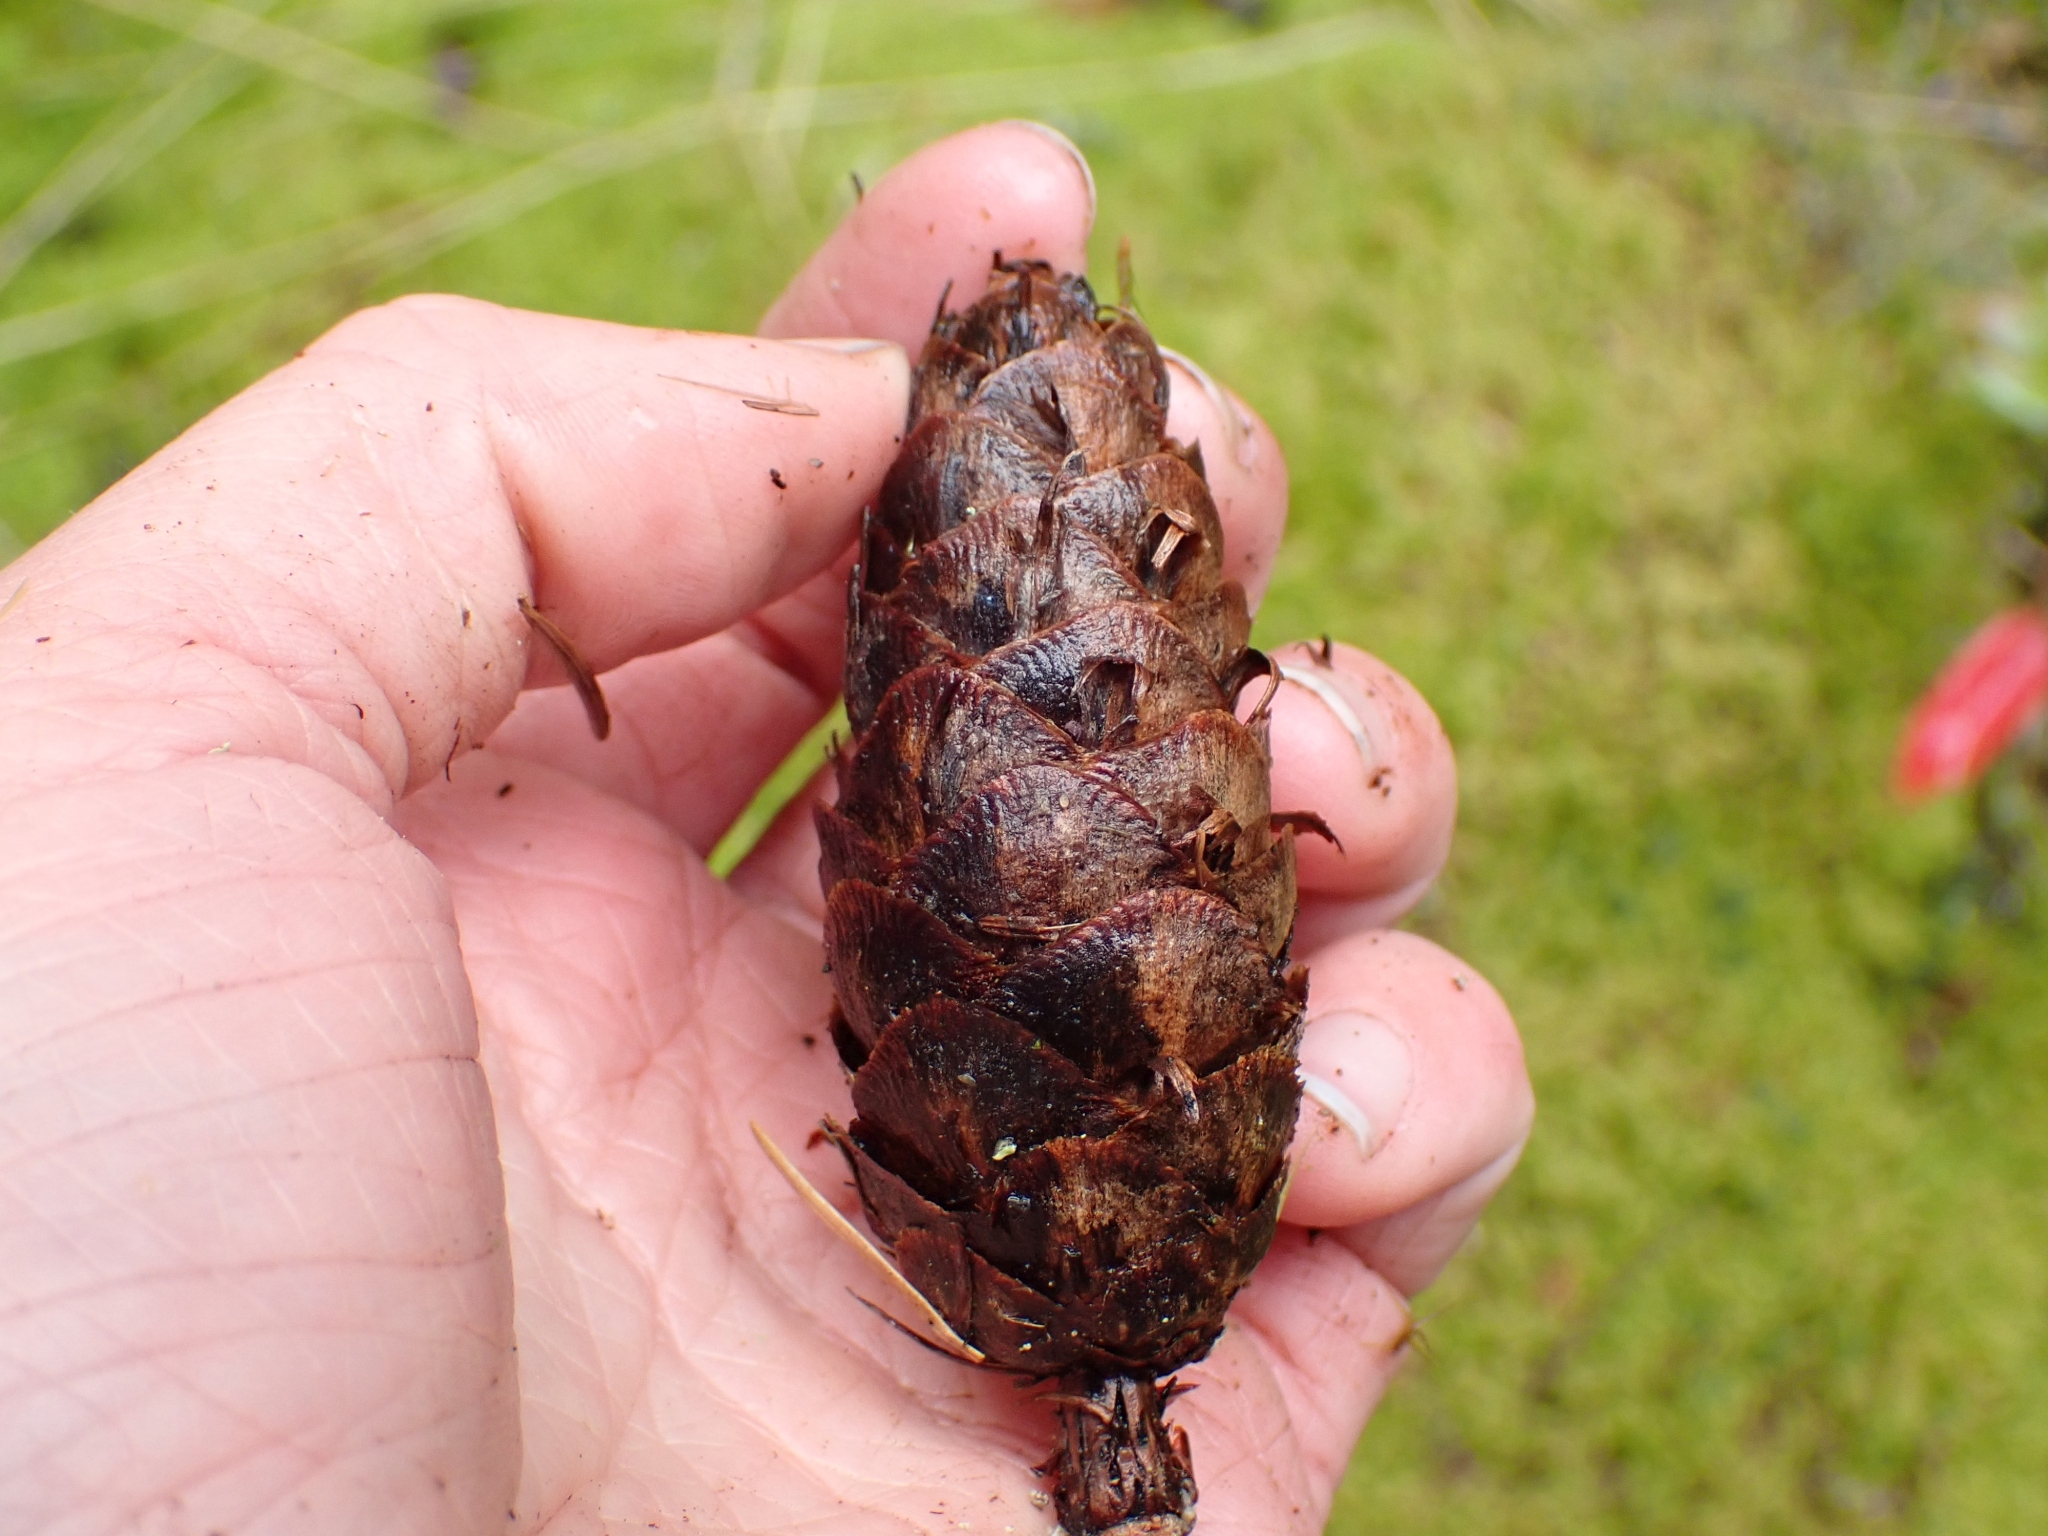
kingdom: Plantae
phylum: Tracheophyta
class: Pinopsida
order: Pinales
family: Pinaceae
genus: Pseudotsuga
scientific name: Pseudotsuga menziesii
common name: Douglas fir
